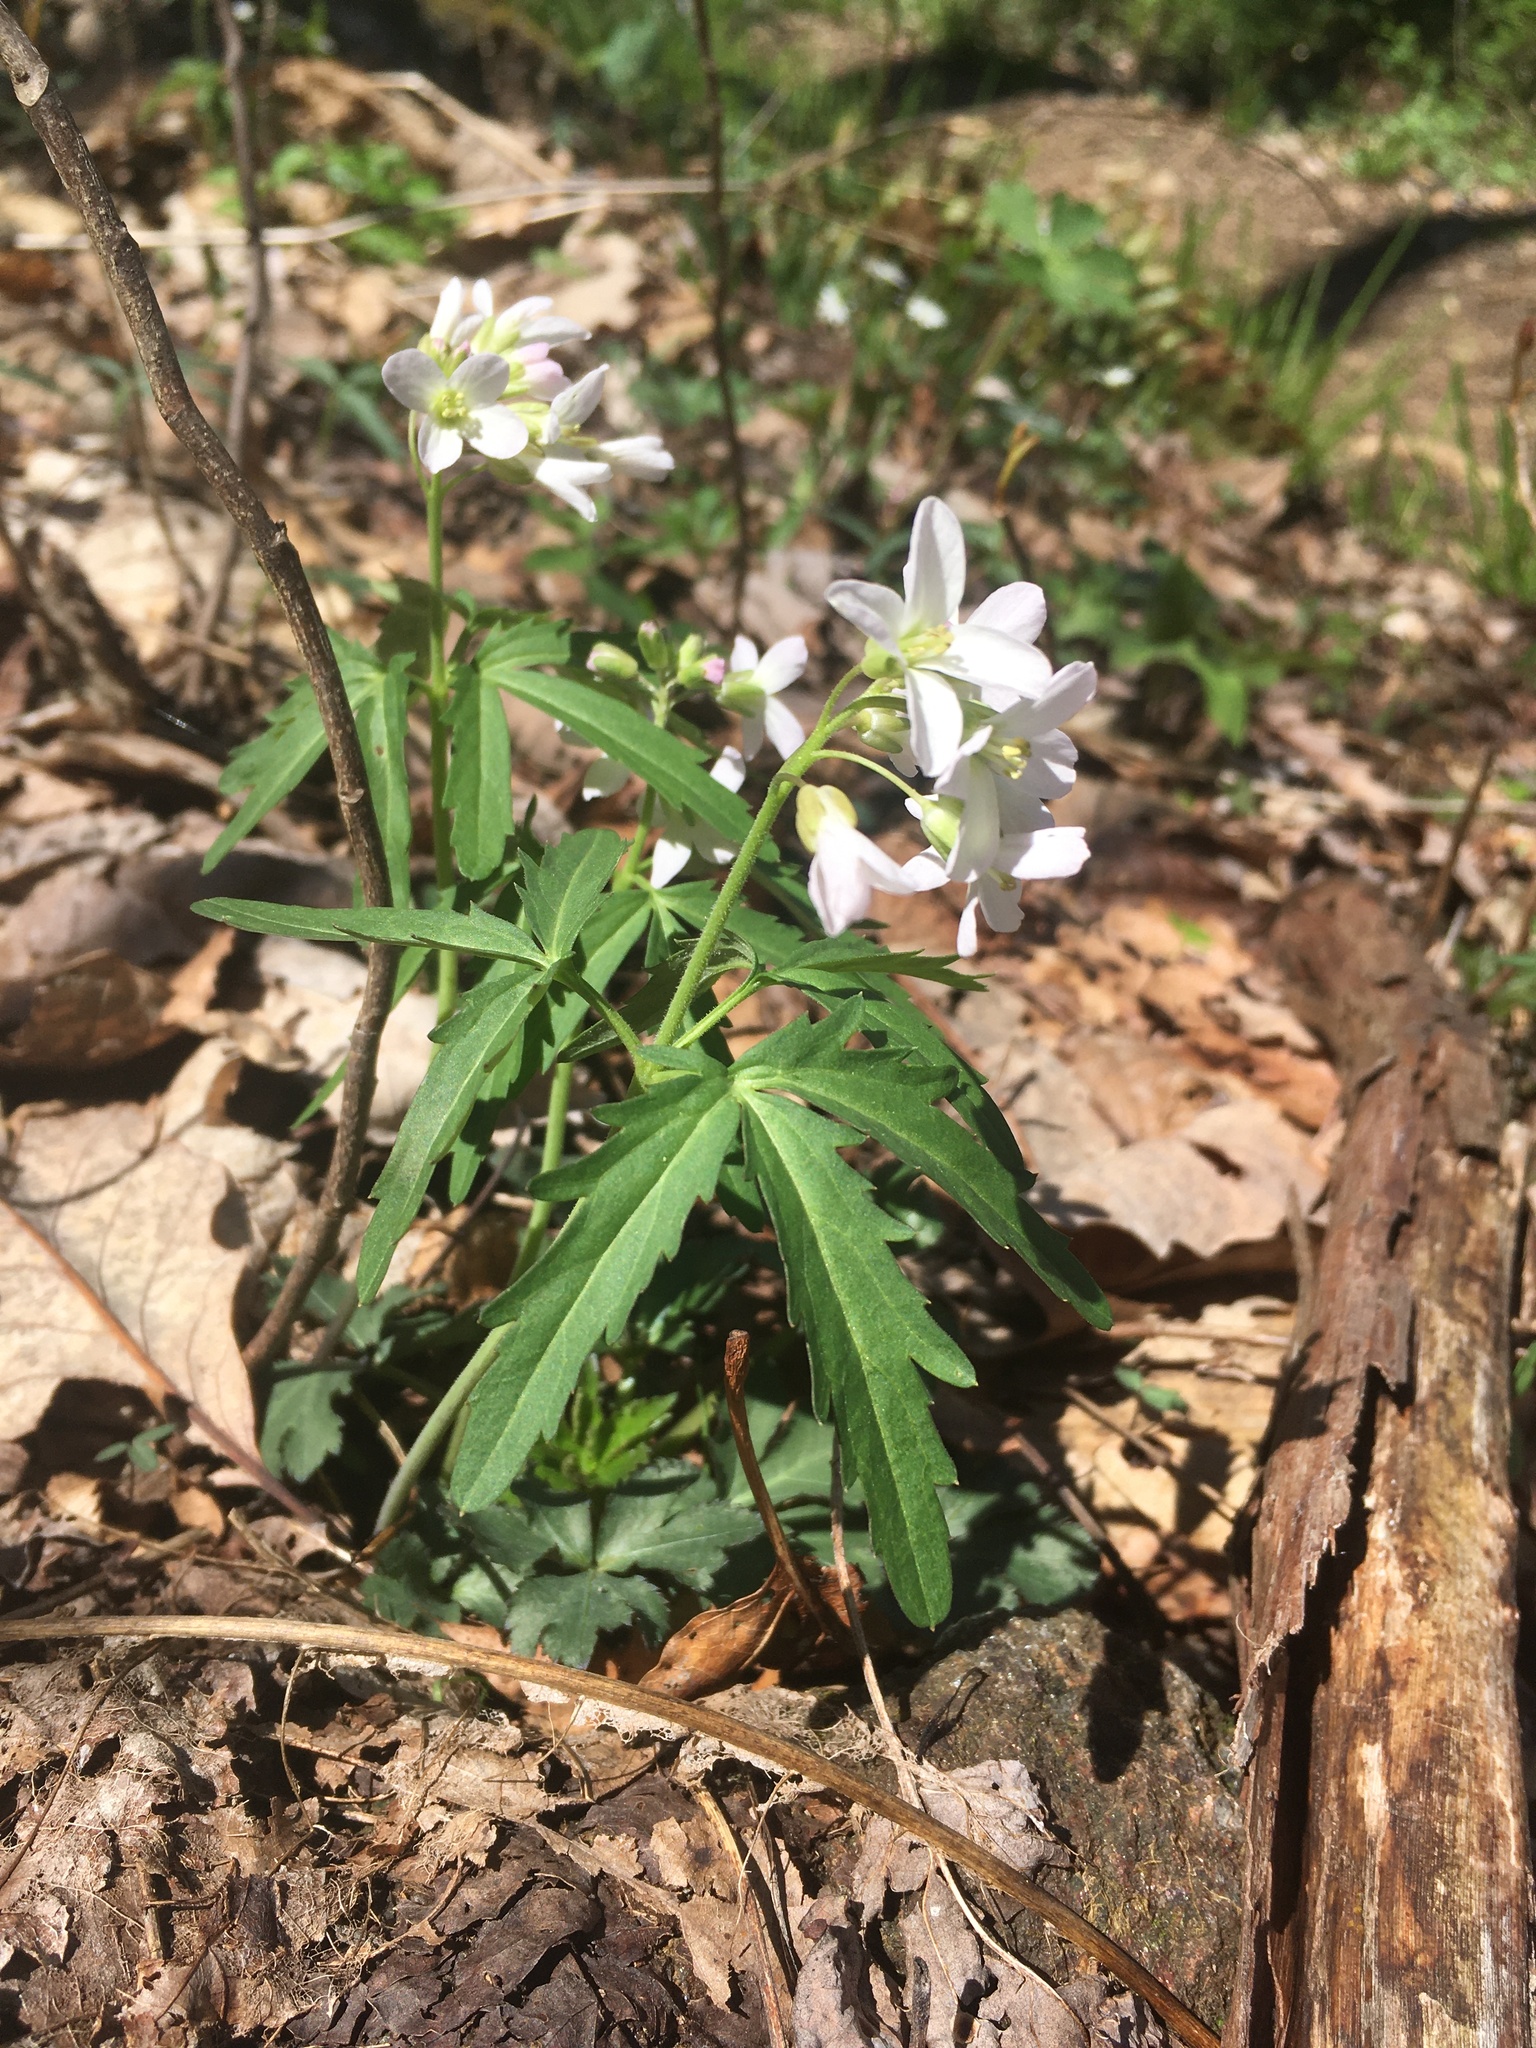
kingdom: Plantae
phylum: Tracheophyta
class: Magnoliopsida
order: Brassicales
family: Brassicaceae
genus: Cardamine
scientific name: Cardamine concatenata
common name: Cut-leaf toothcup
